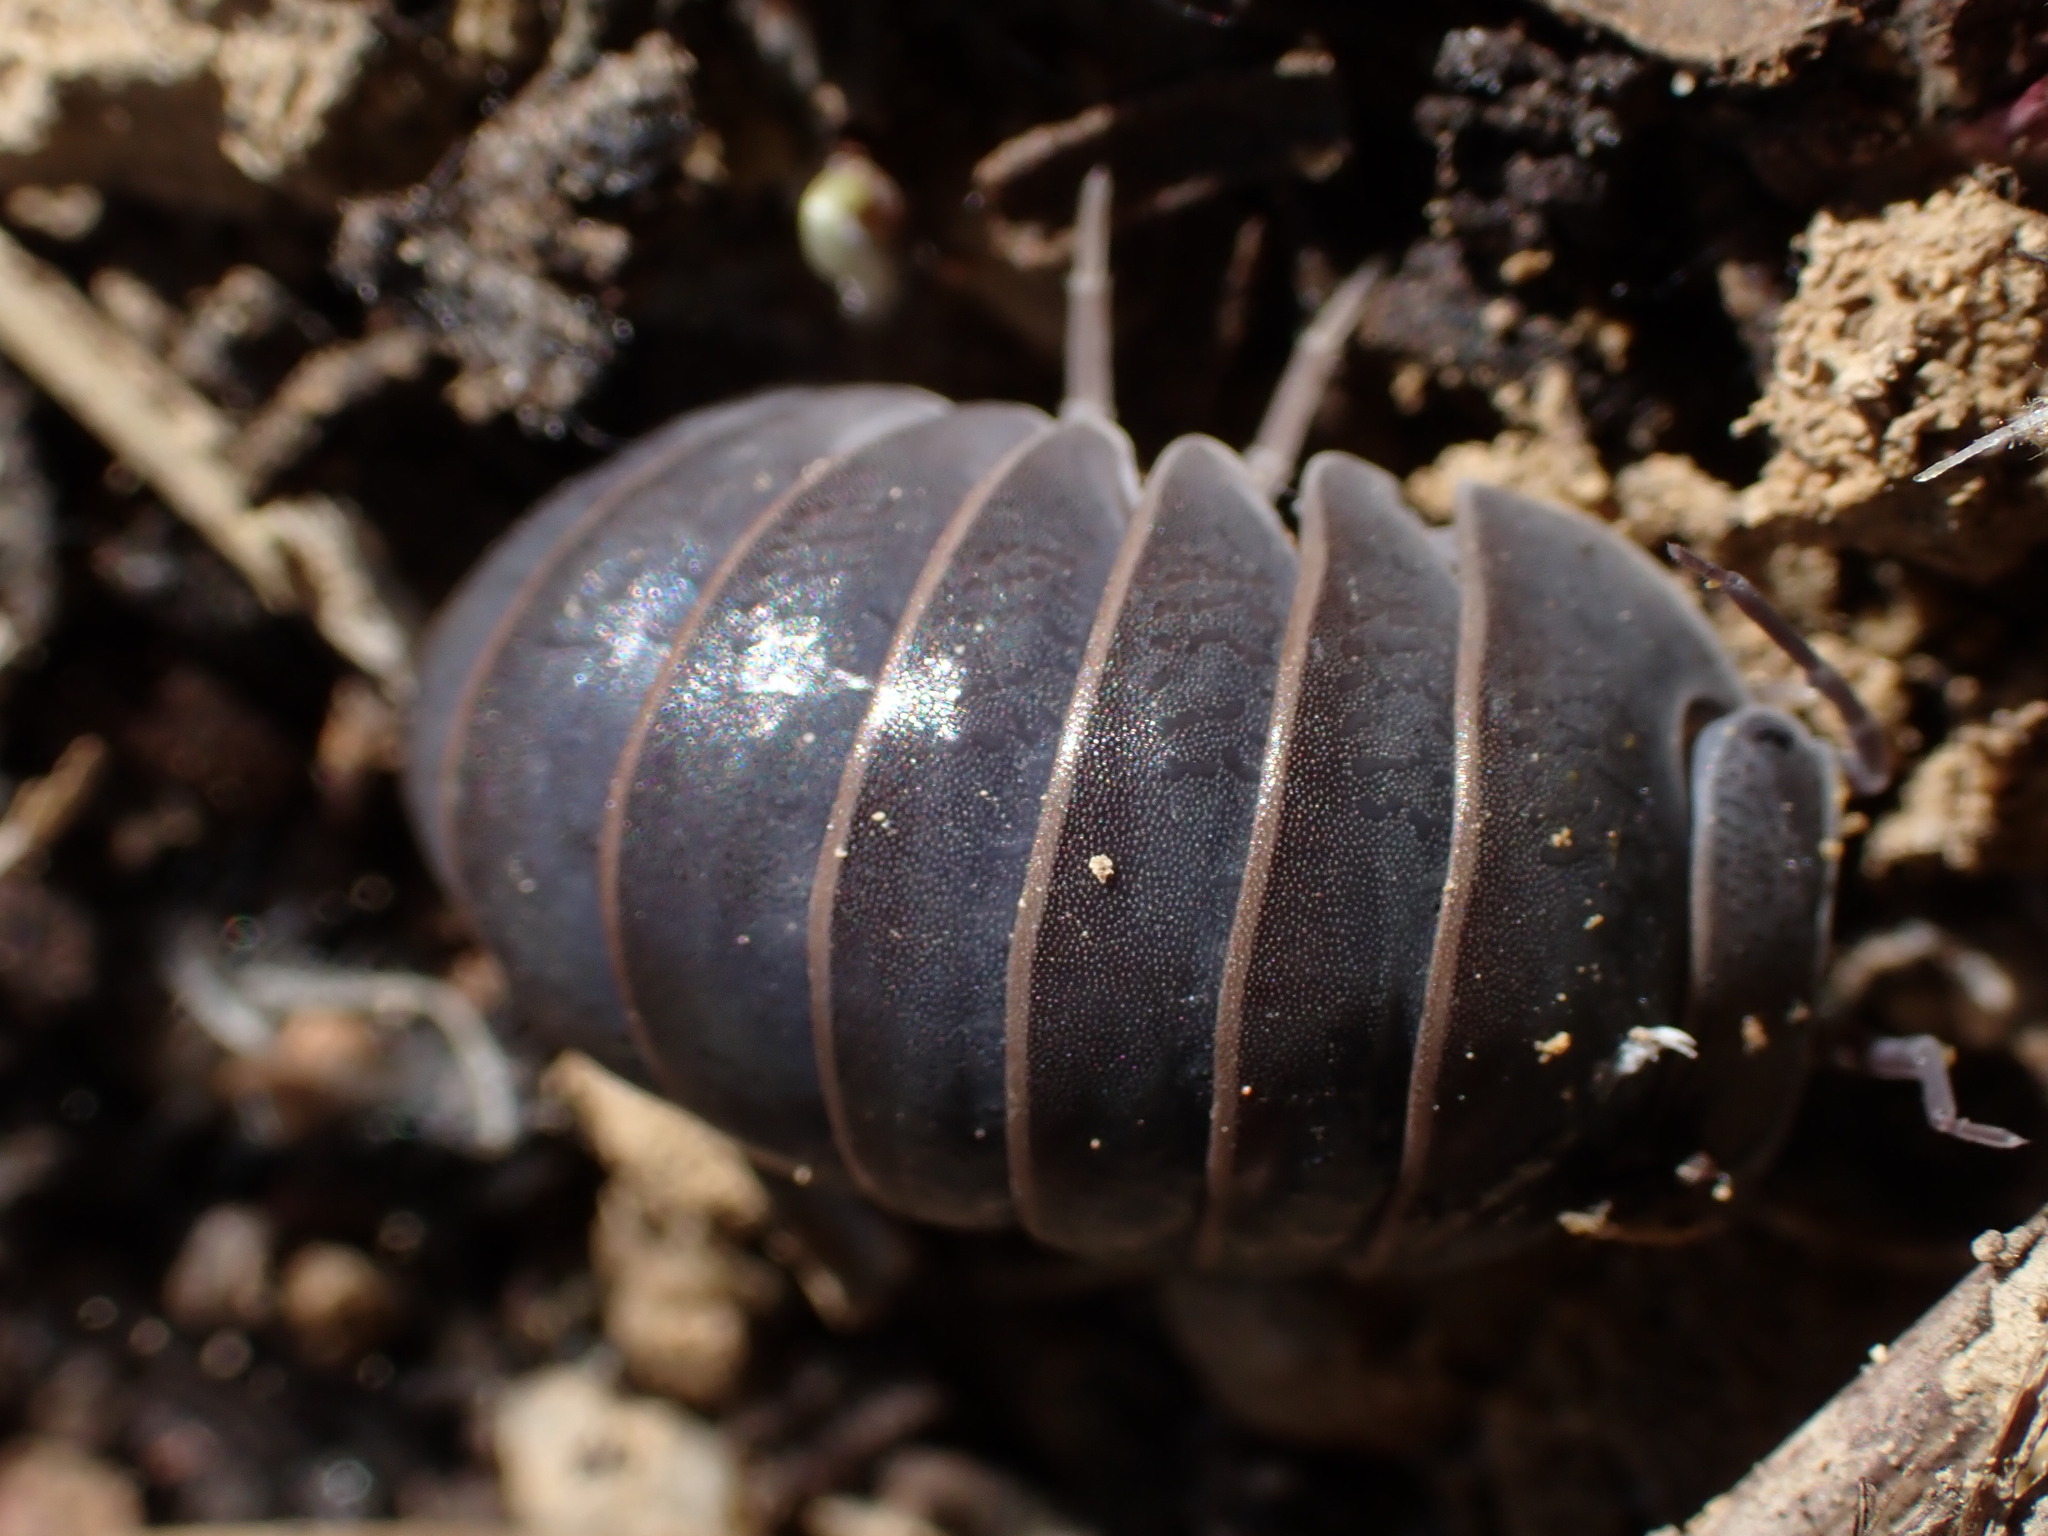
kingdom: Animalia
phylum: Arthropoda
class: Malacostraca
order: Isopoda
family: Armadillidae
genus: Armadillo
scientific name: Armadillo officinalis
